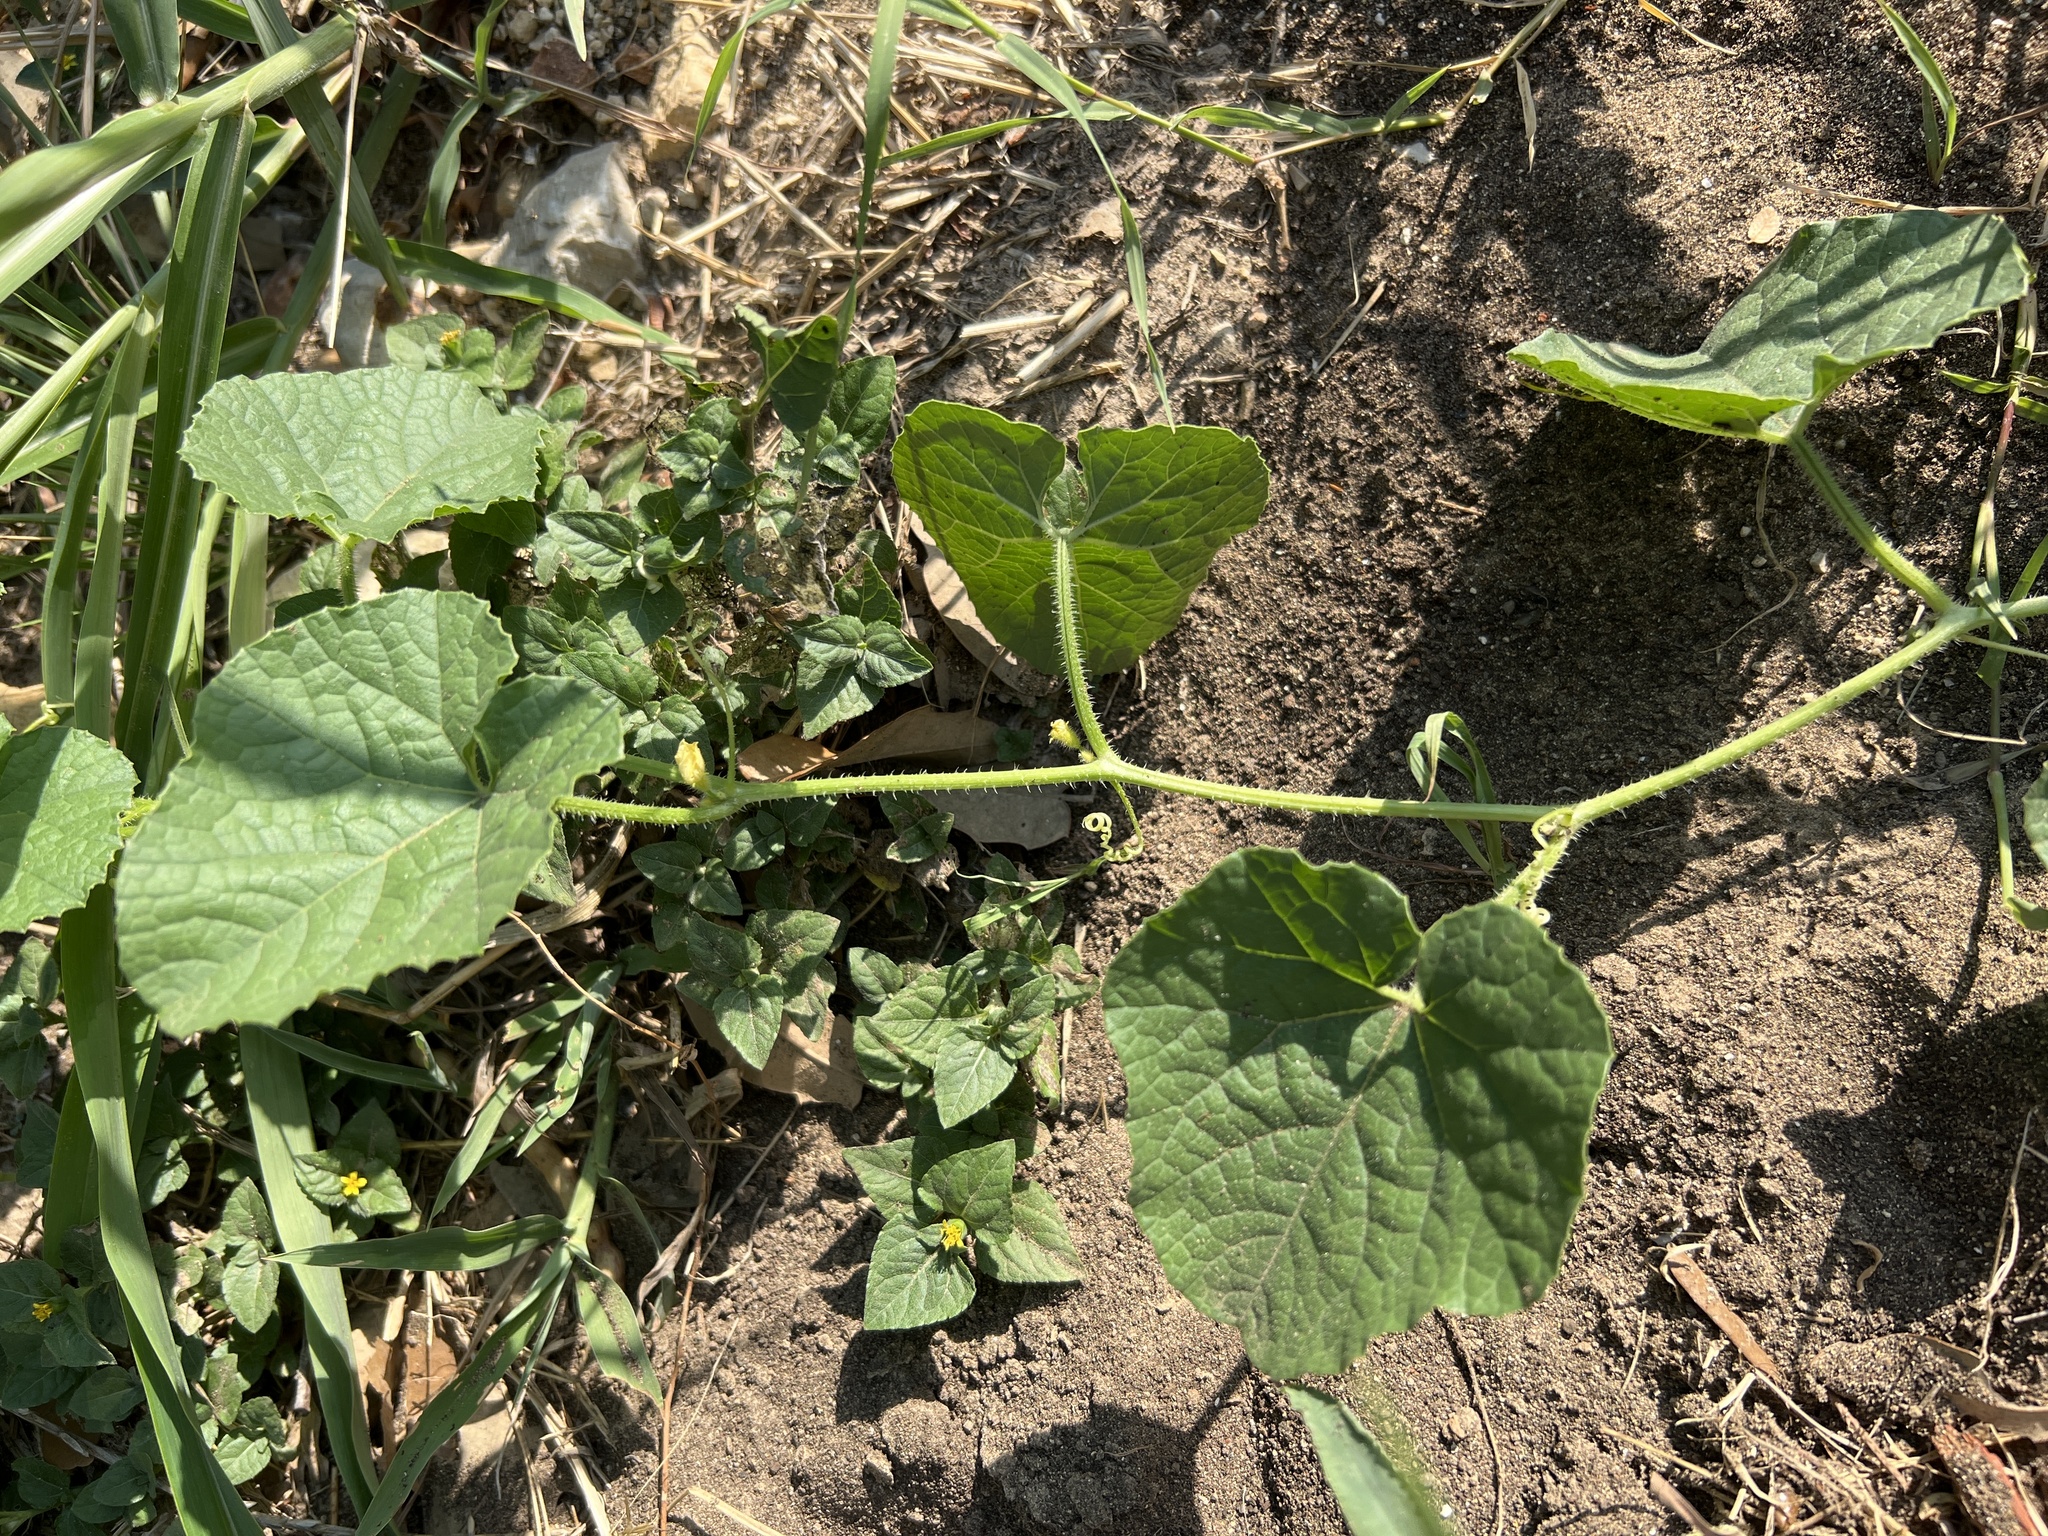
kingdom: Plantae
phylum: Tracheophyta
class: Magnoliopsida
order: Cucurbitales
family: Cucurbitaceae
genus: Cucumis
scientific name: Cucumis melo
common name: Melon
